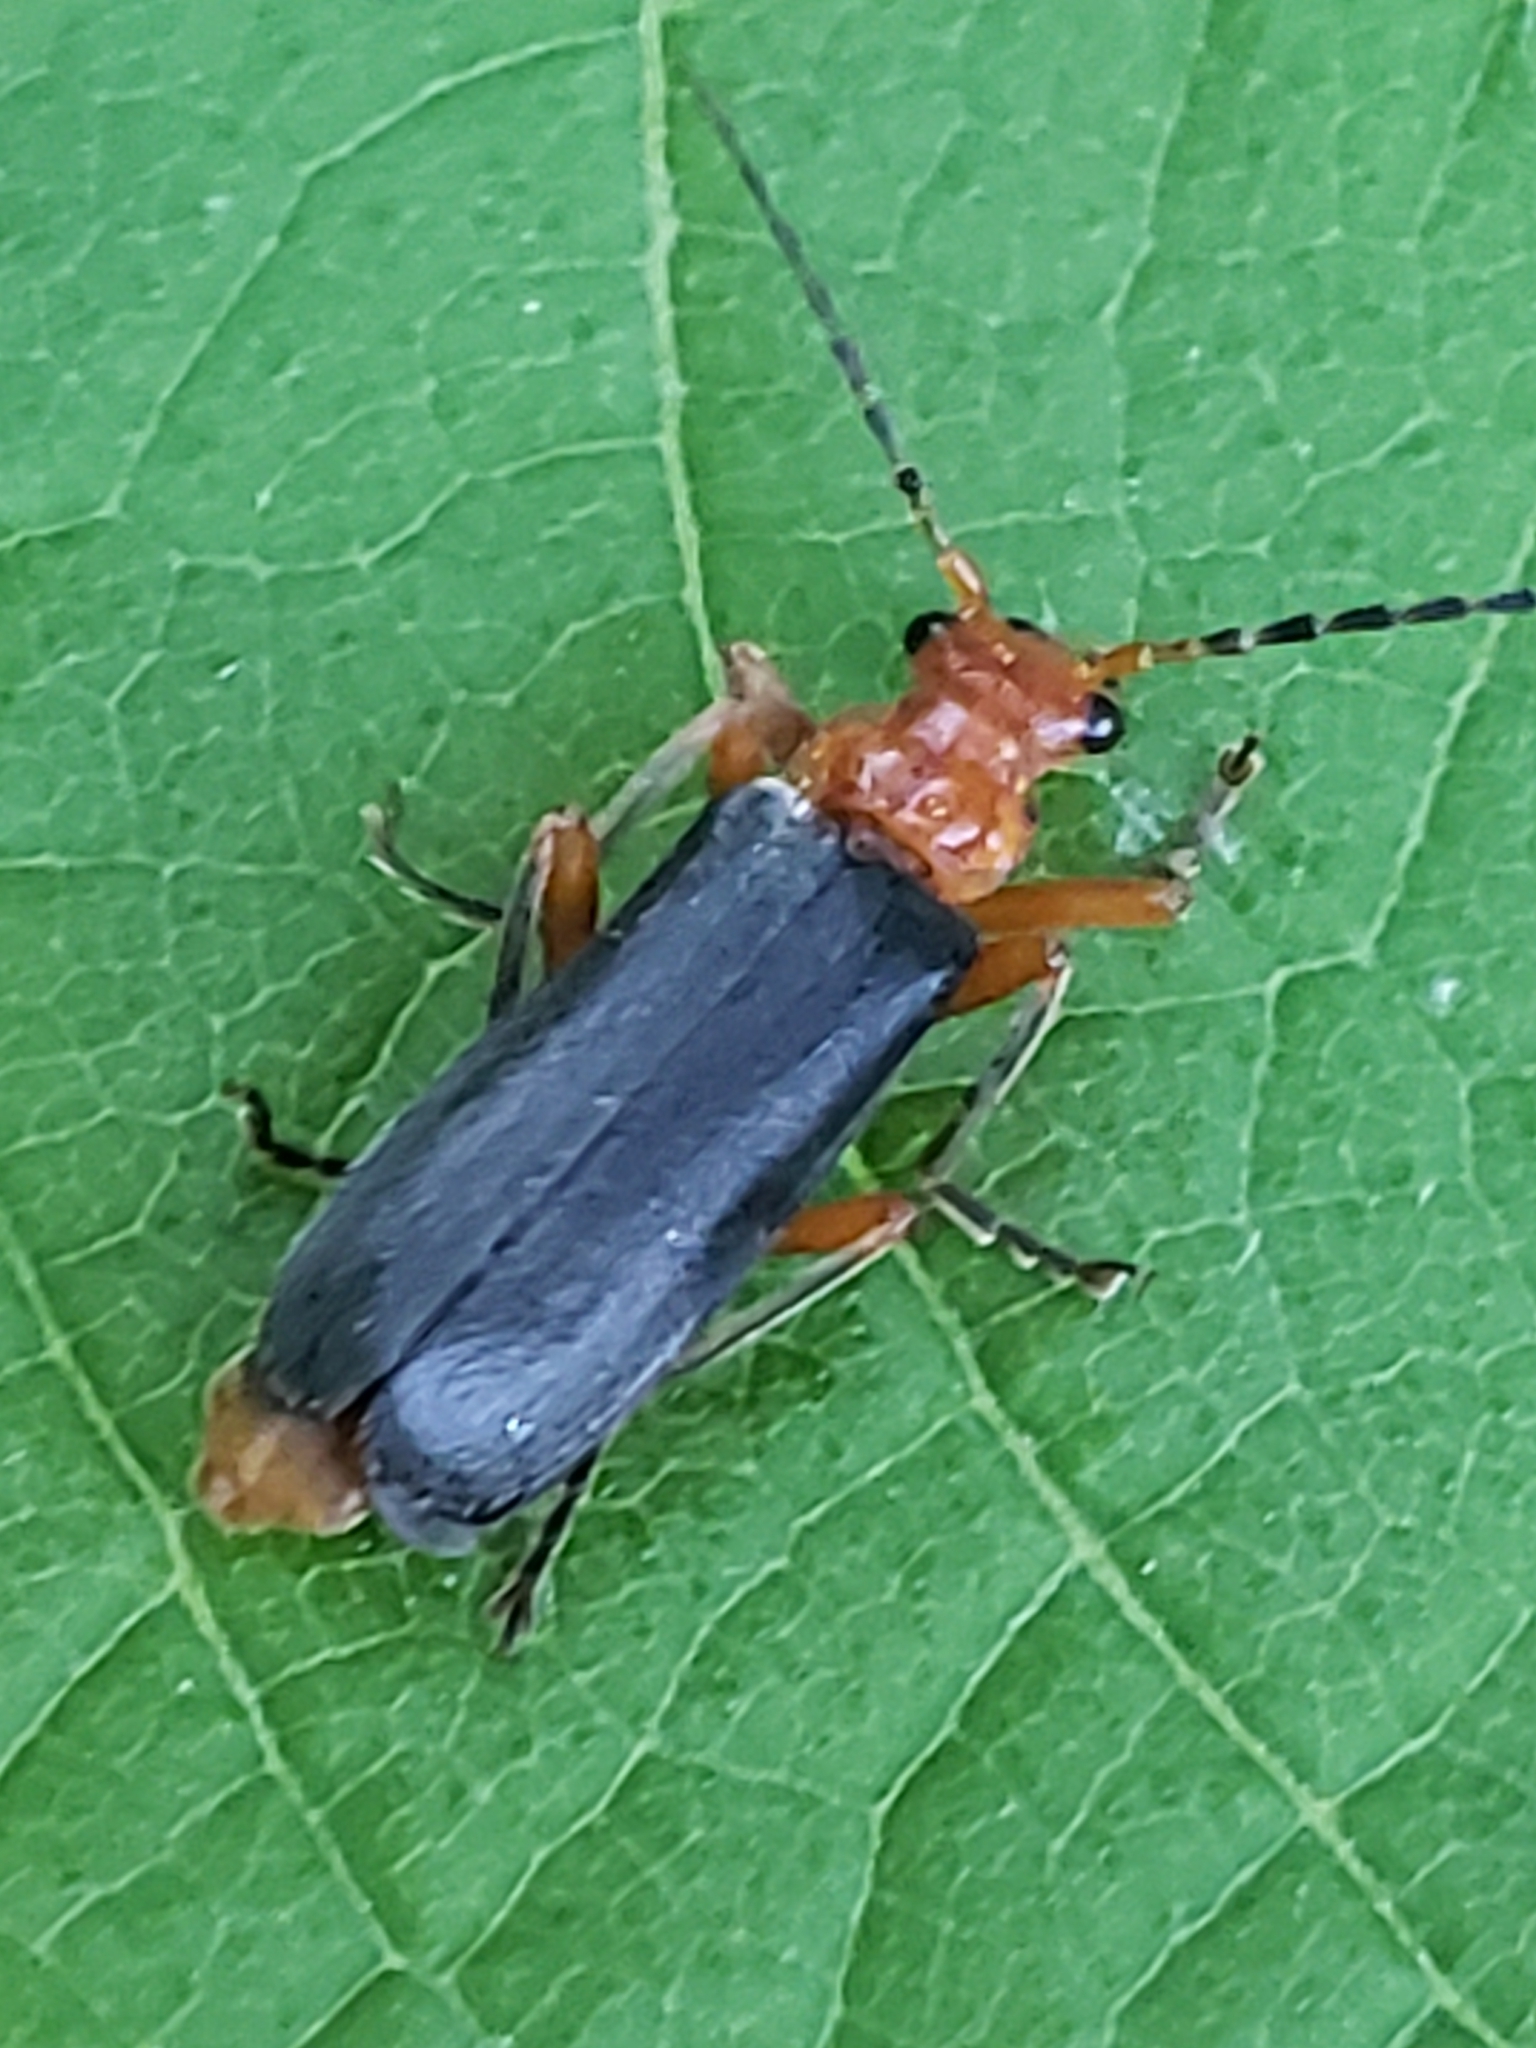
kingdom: Animalia
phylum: Arthropoda
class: Insecta
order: Coleoptera
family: Cantharidae
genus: Podabrus
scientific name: Podabrus tomentosus
